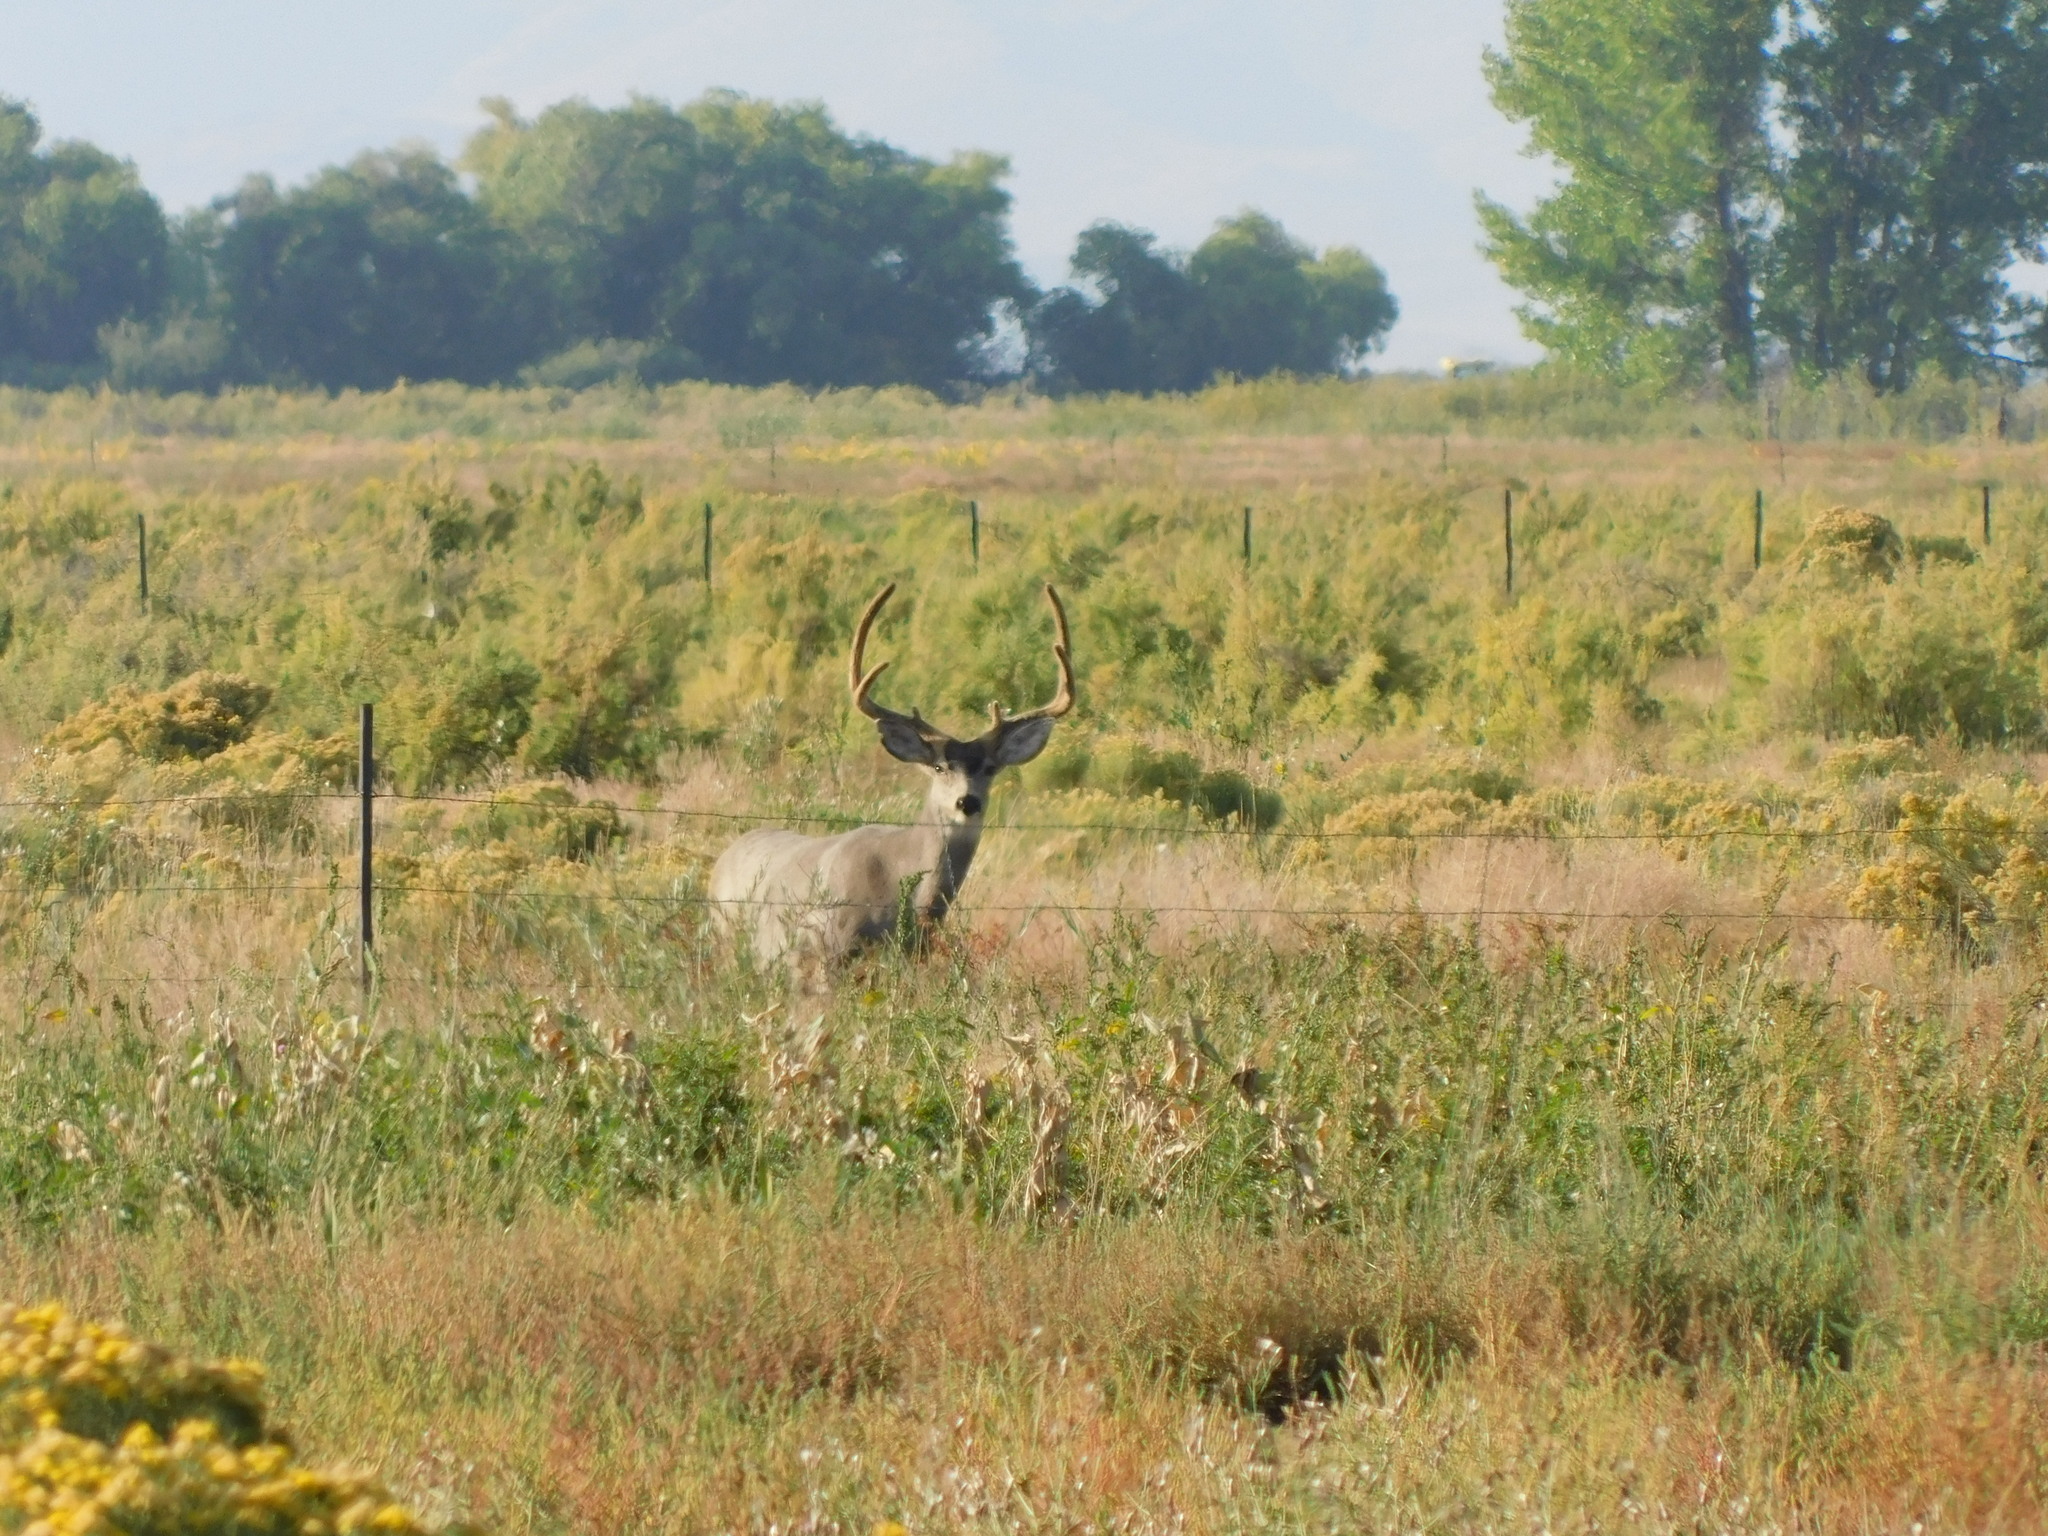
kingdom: Animalia
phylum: Chordata
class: Mammalia
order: Artiodactyla
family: Cervidae
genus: Odocoileus
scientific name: Odocoileus hemionus
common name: Mule deer
